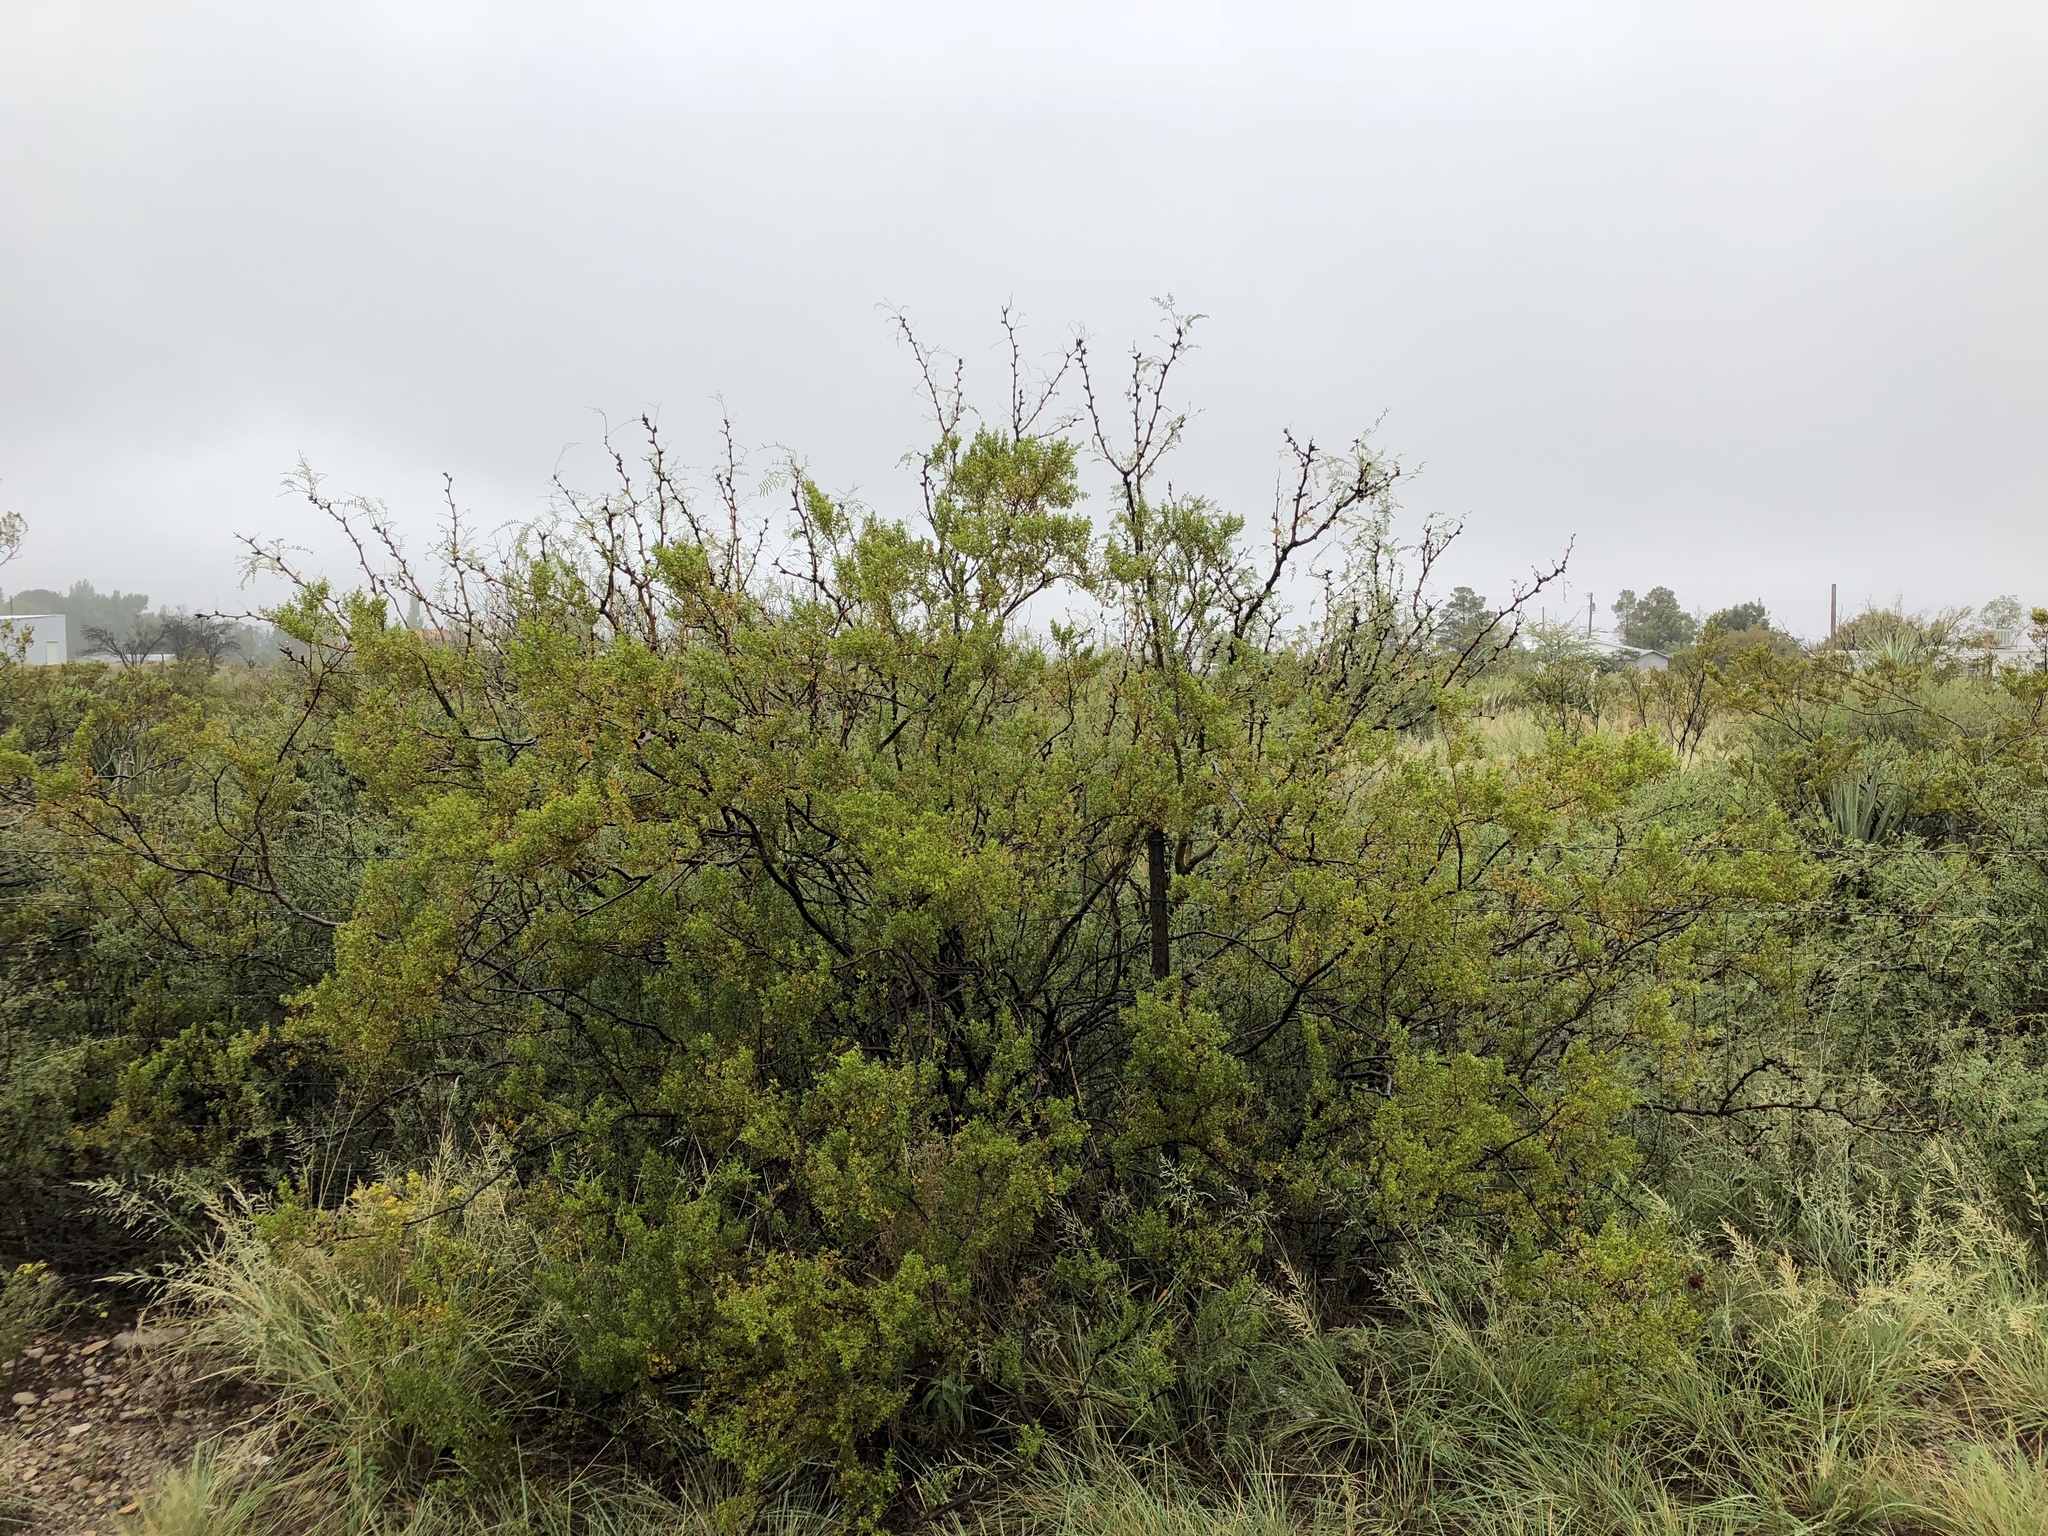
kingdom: Plantae
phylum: Tracheophyta
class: Magnoliopsida
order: Zygophyllales
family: Zygophyllaceae
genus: Larrea
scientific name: Larrea tridentata
